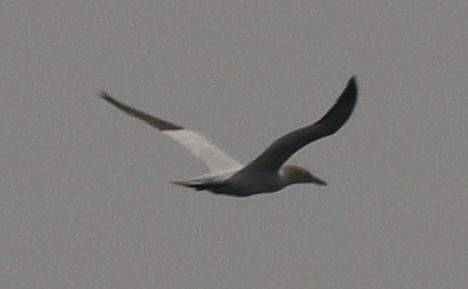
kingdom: Animalia
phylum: Chordata
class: Aves
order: Suliformes
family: Sulidae
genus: Morus
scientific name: Morus bassanus
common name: Northern gannet
